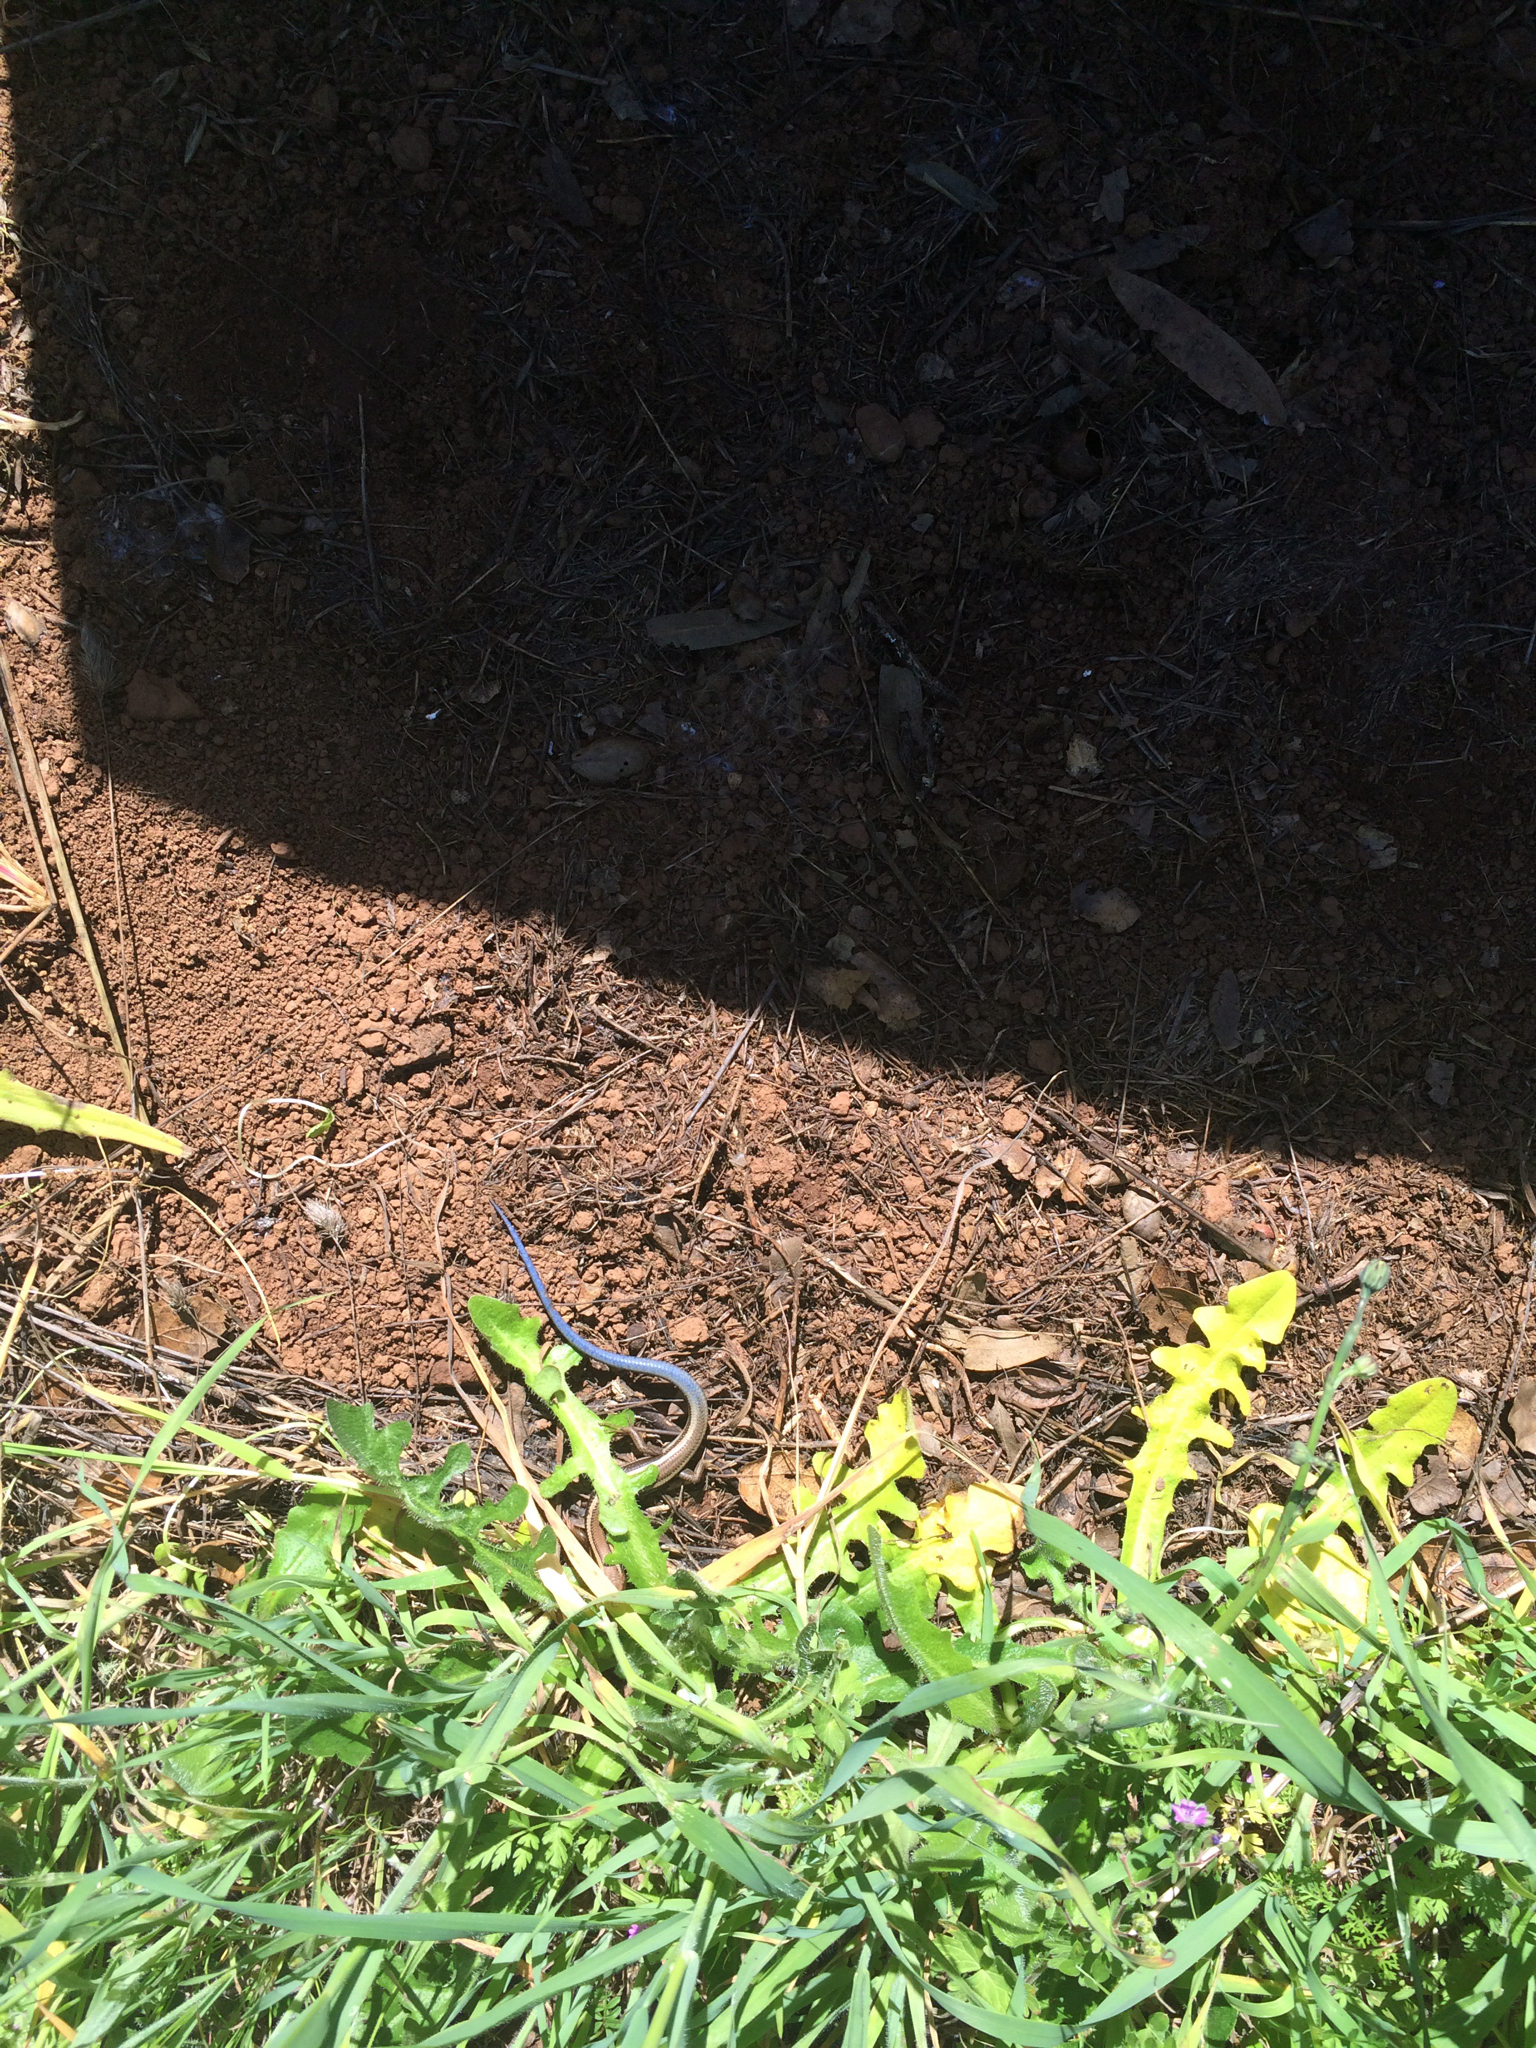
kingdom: Animalia
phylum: Chordata
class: Squamata
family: Scincidae
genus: Plestiodon
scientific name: Plestiodon skiltonianus
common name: Coronado island skink [interparietalis]
